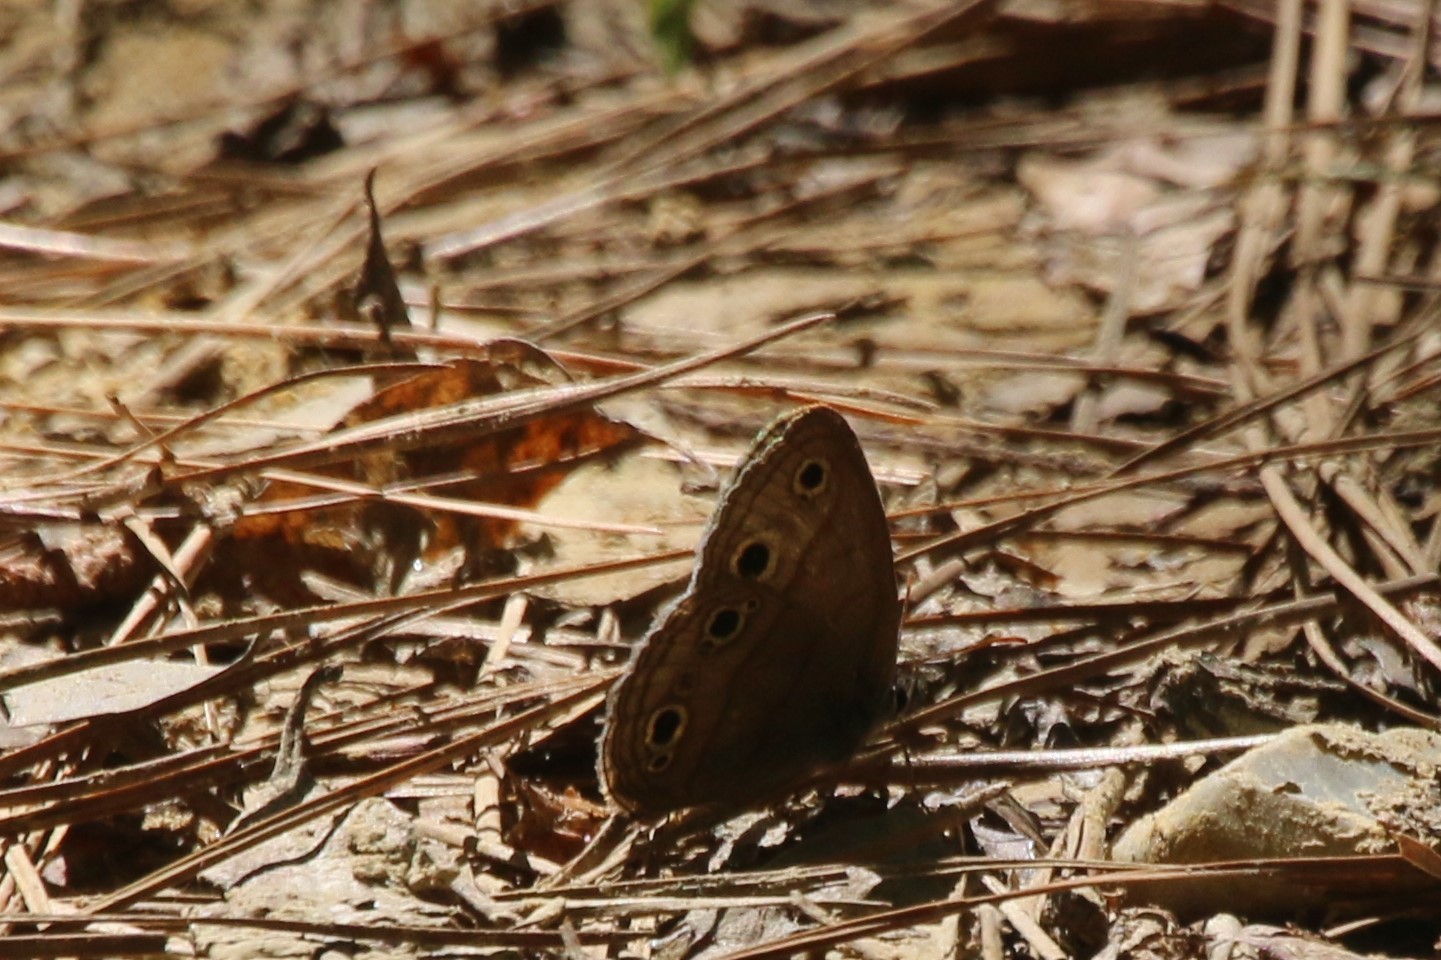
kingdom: Animalia
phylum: Arthropoda
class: Insecta
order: Lepidoptera
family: Nymphalidae
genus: Euptychia
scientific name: Euptychia cymela
